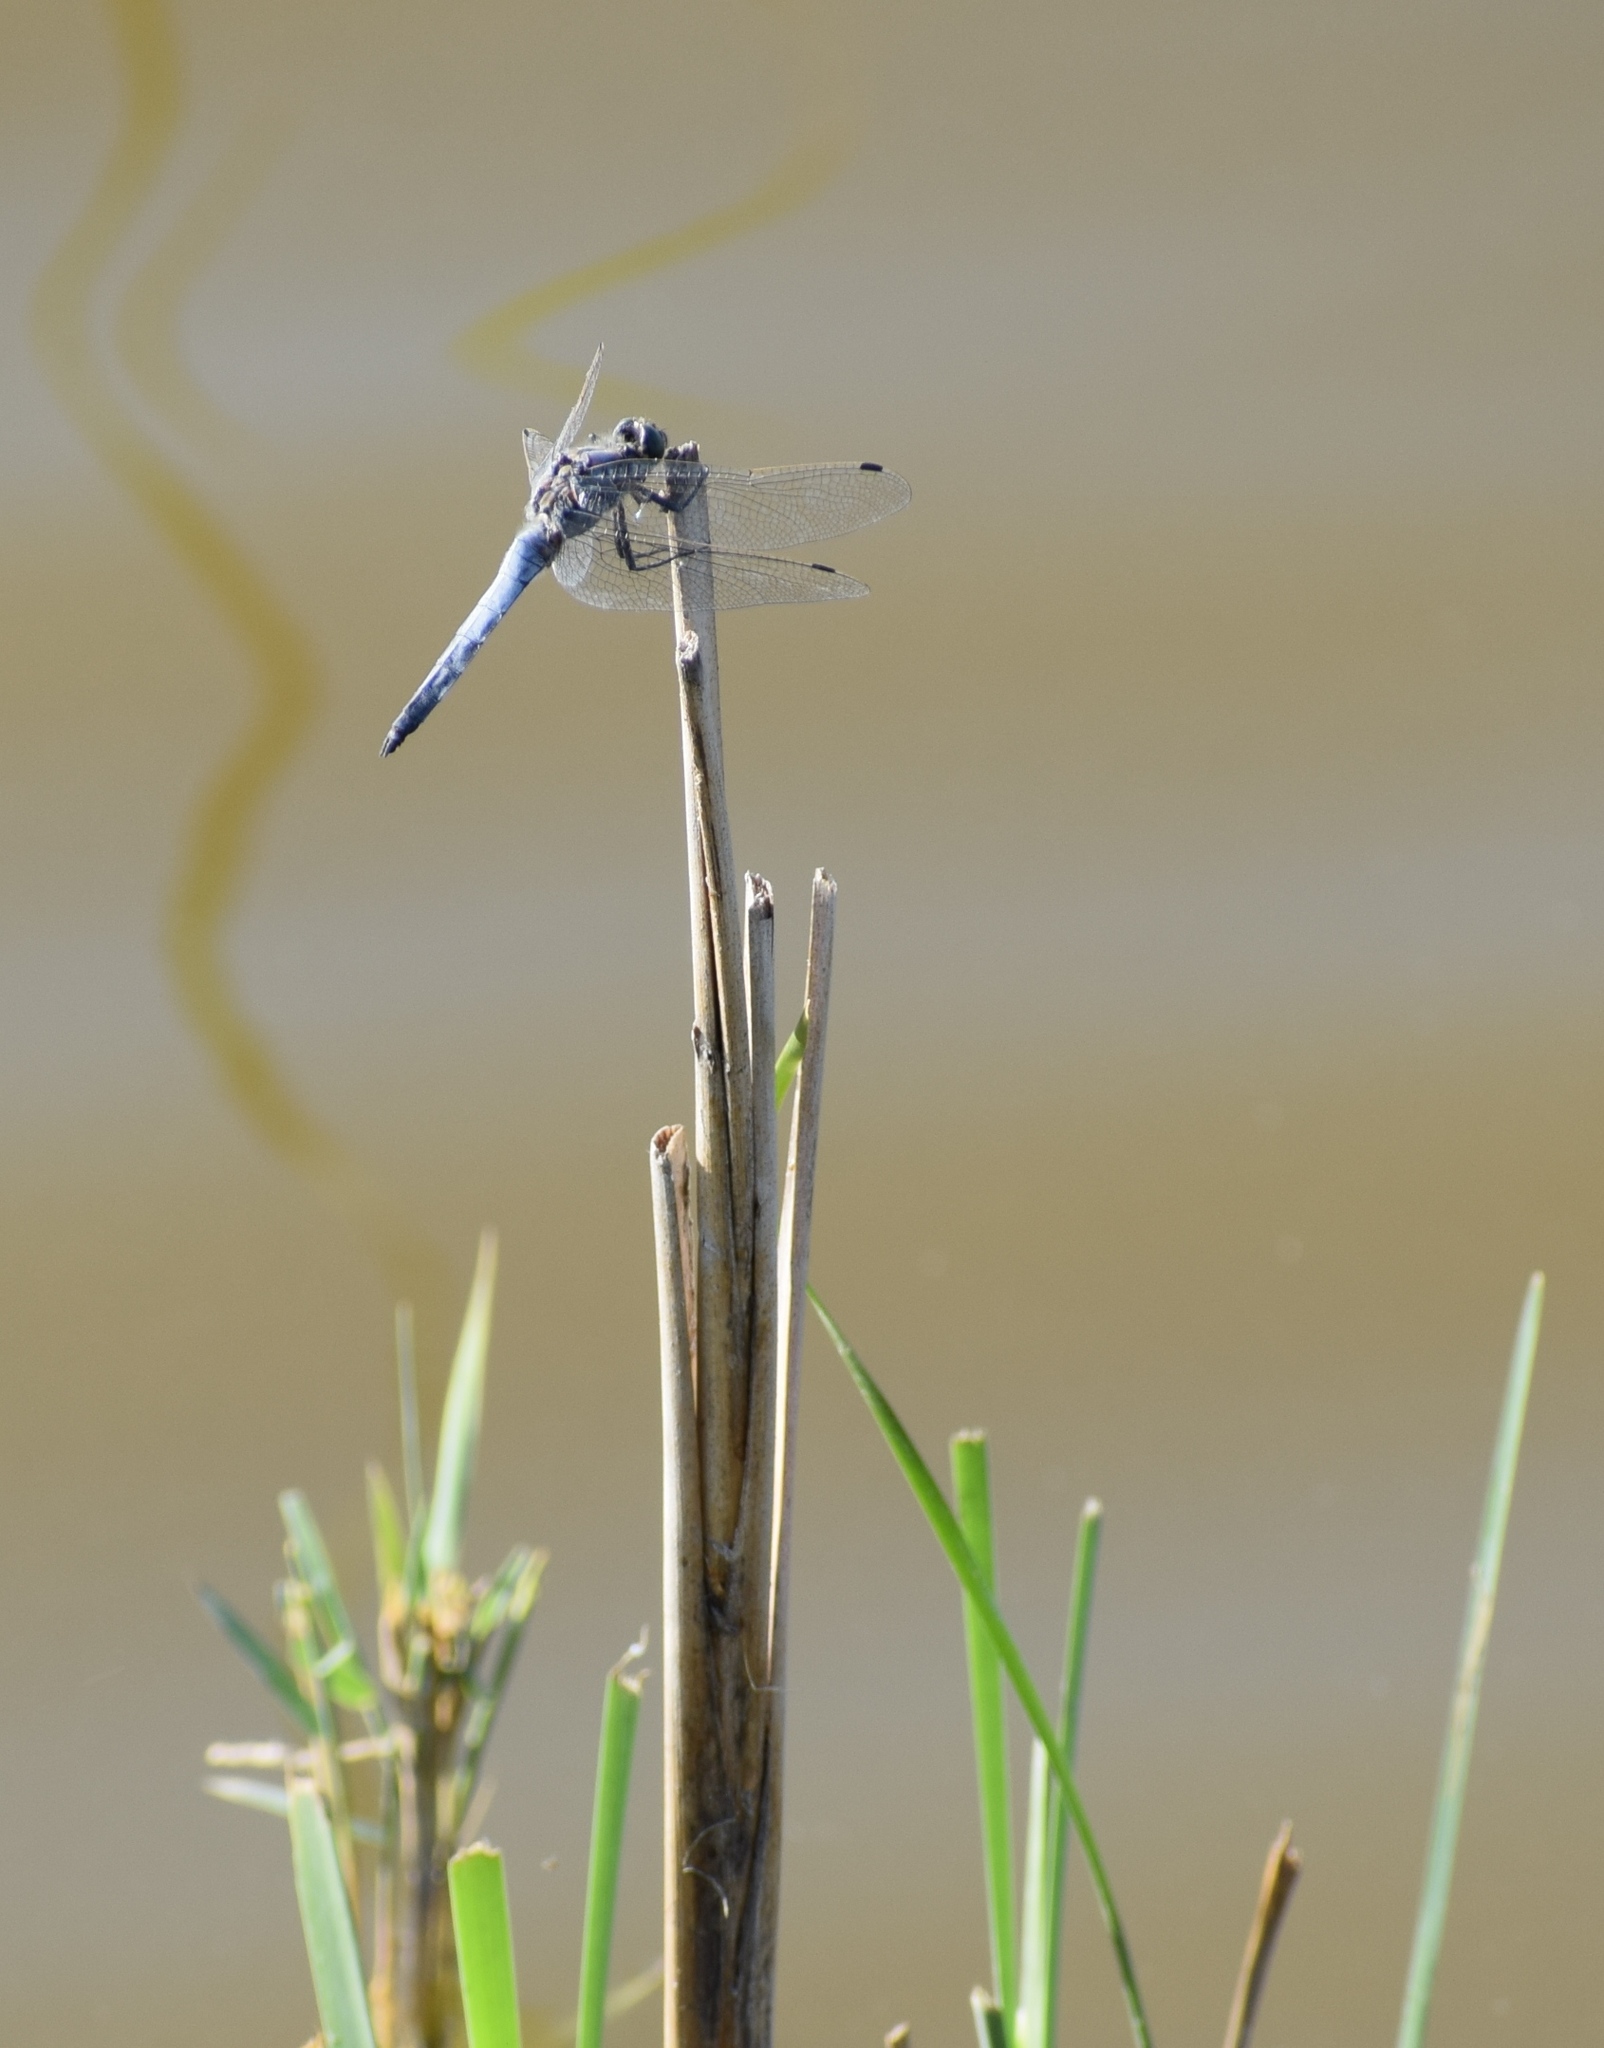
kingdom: Animalia
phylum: Arthropoda
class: Insecta
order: Odonata
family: Libellulidae
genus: Orthetrum
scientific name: Orthetrum cancellatum
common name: Black-tailed skimmer
